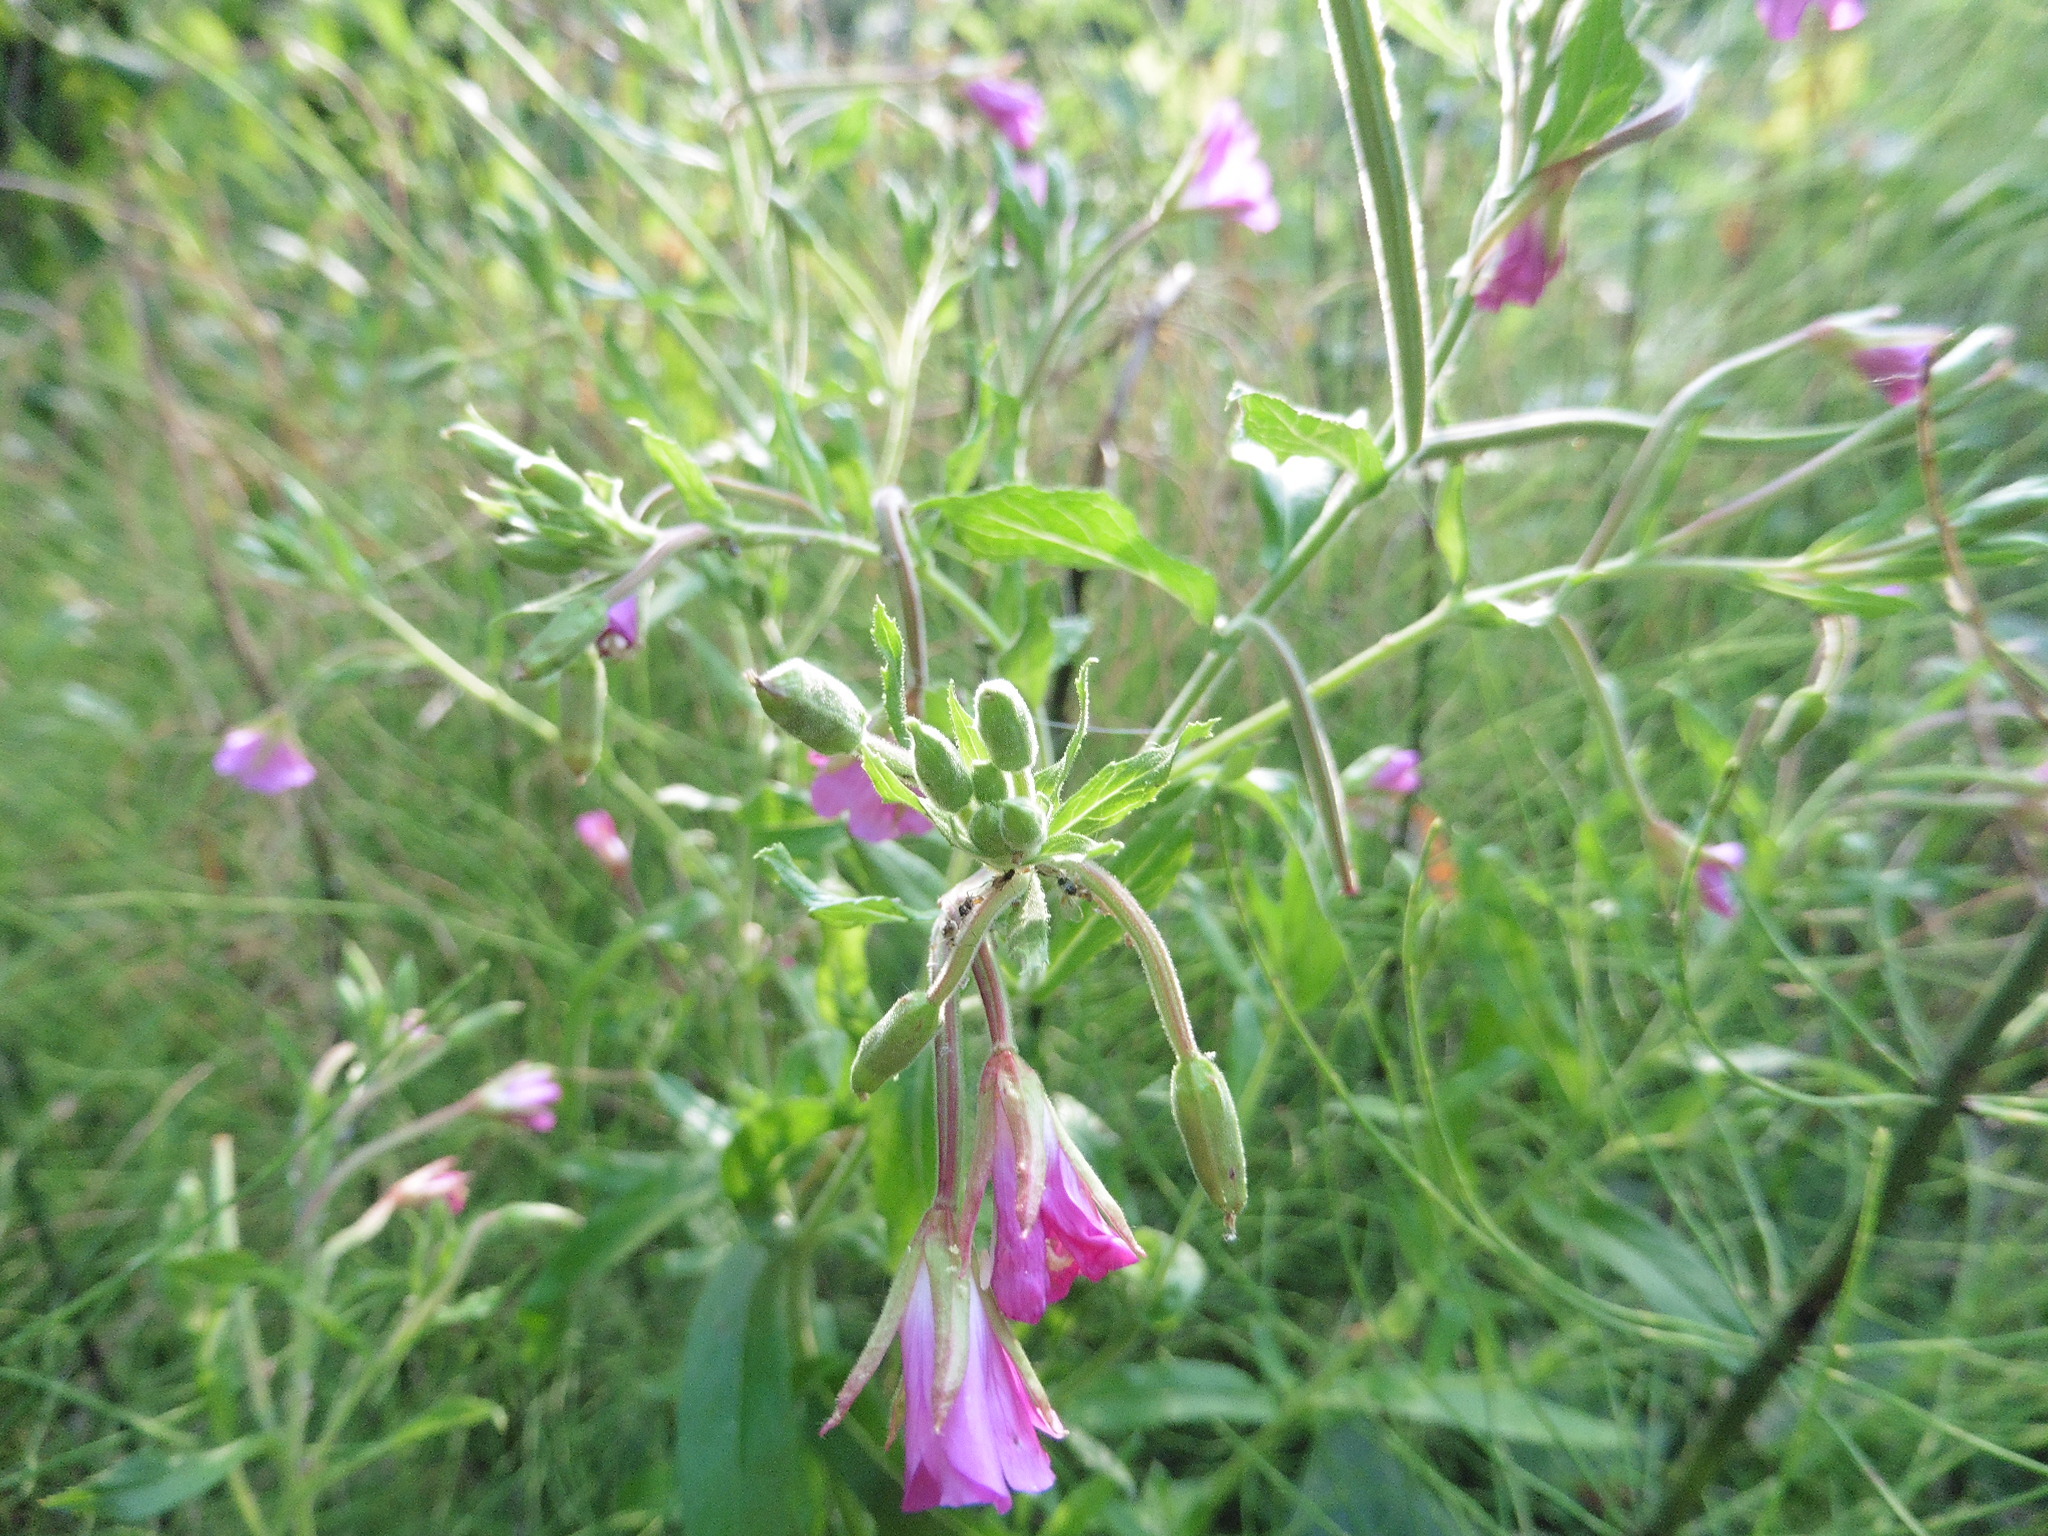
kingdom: Plantae
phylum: Tracheophyta
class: Magnoliopsida
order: Myrtales
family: Onagraceae
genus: Epilobium
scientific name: Epilobium hirsutum
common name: Great willowherb
